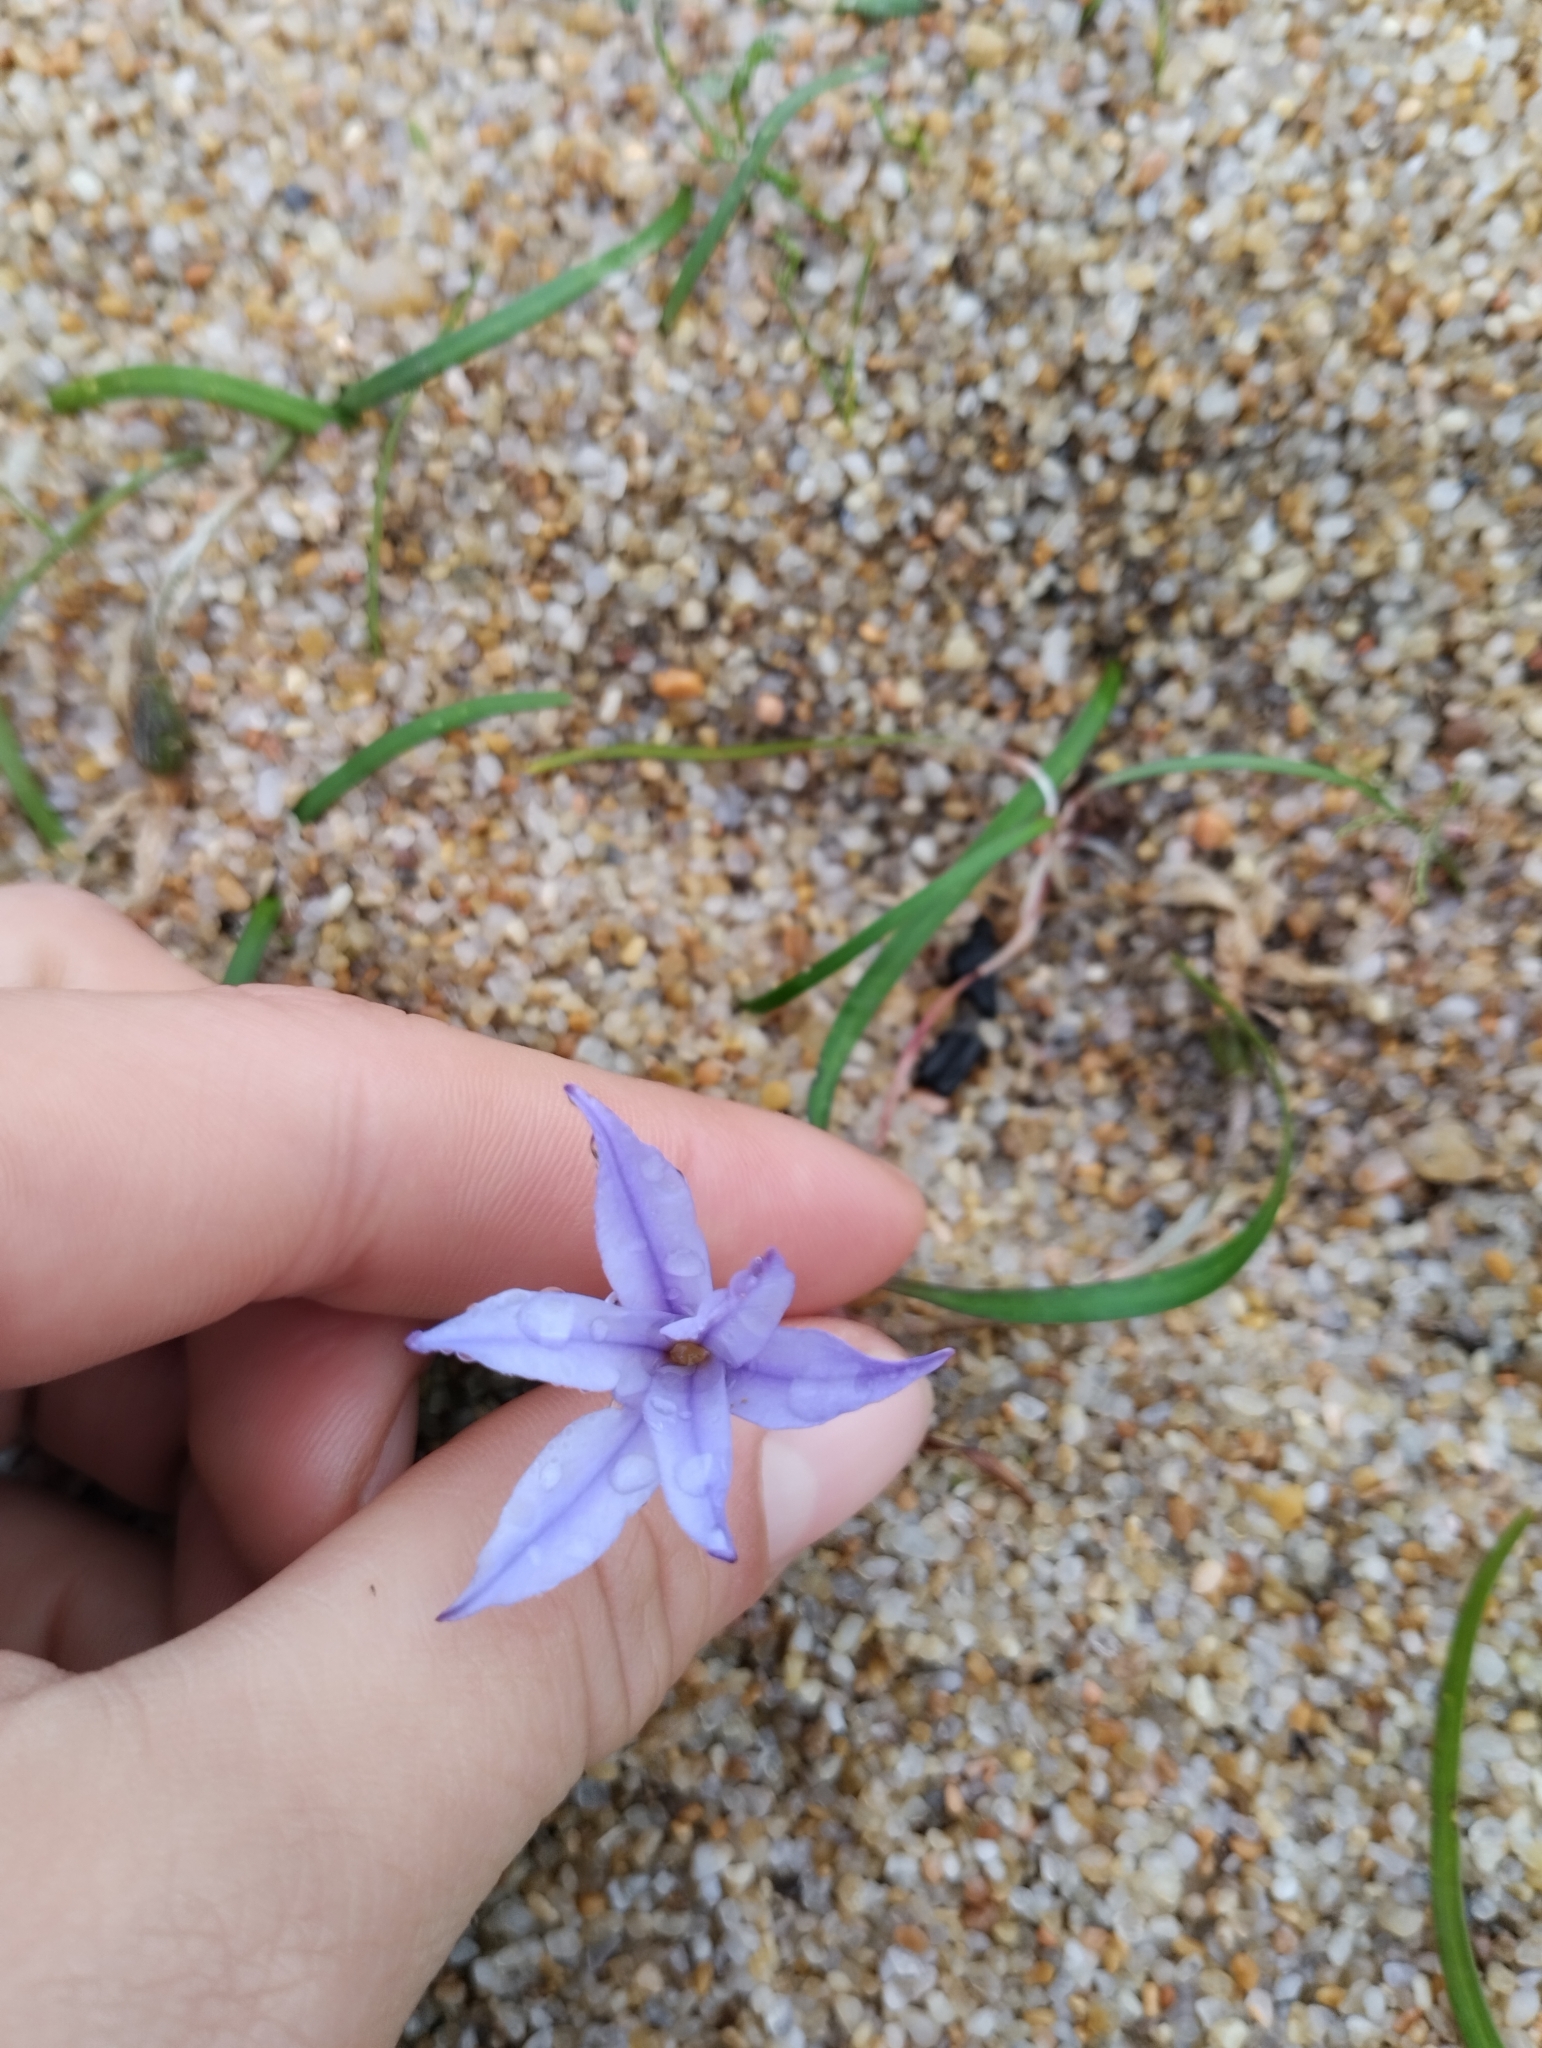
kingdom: Plantae
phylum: Tracheophyta
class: Liliopsida
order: Asparagales
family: Amaryllidaceae
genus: Ipheion
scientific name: Ipheion uniflorum
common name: Spring starflower
